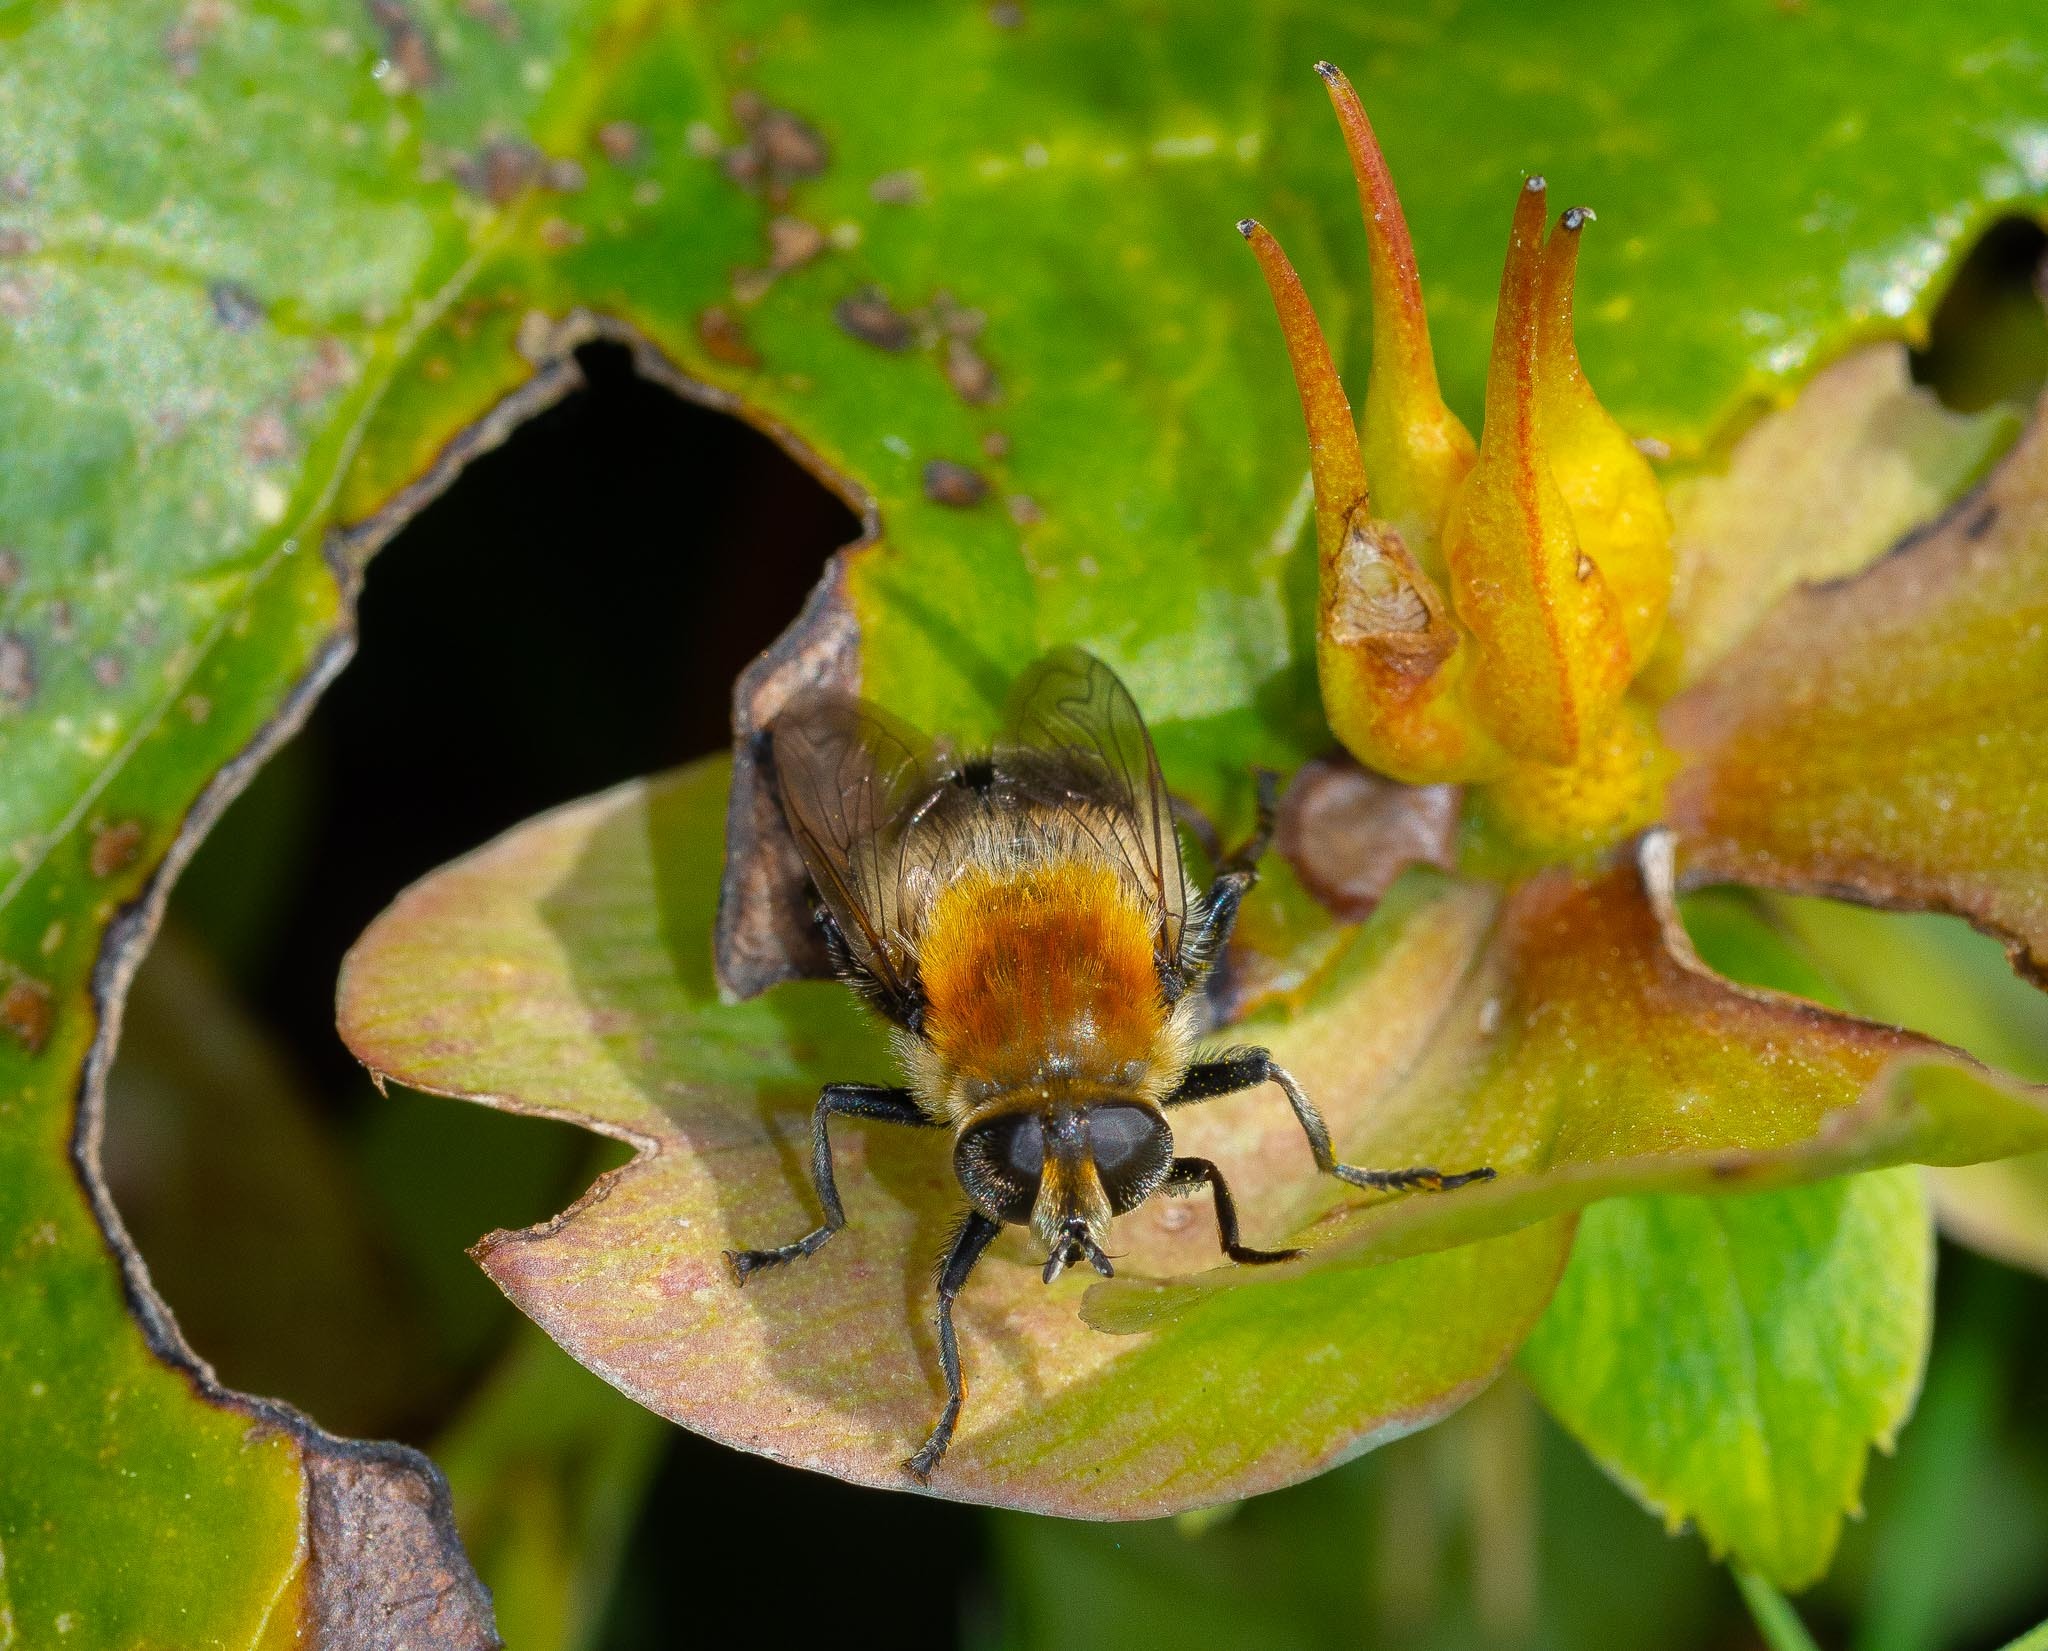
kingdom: Animalia
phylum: Arthropoda
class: Insecta
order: Diptera
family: Syrphidae
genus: Merodon
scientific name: Merodon equestris
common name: Greater bulb-fly
